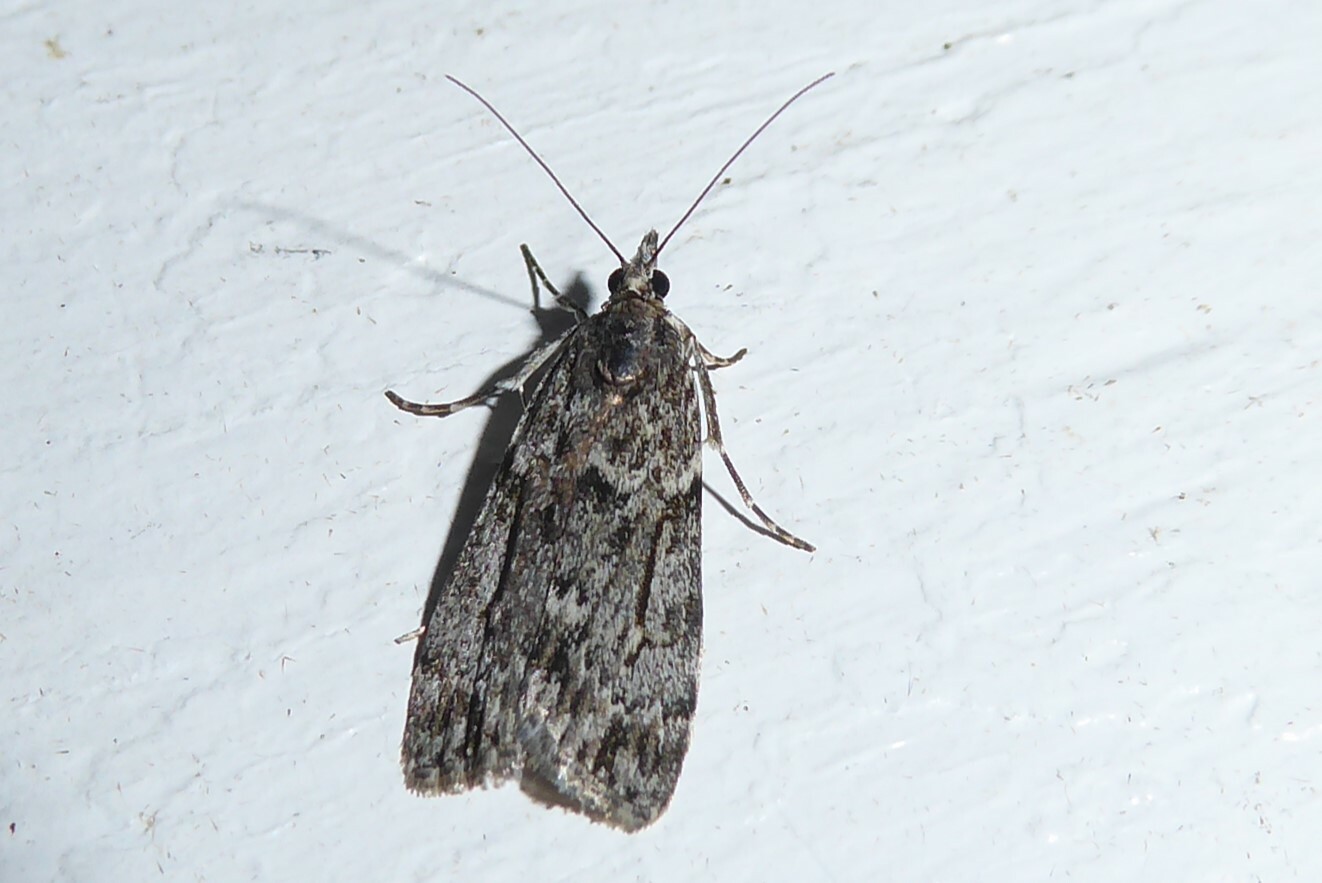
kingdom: Animalia
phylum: Arthropoda
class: Insecta
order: Lepidoptera
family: Crambidae
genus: Eudonia
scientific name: Eudonia cymatias
